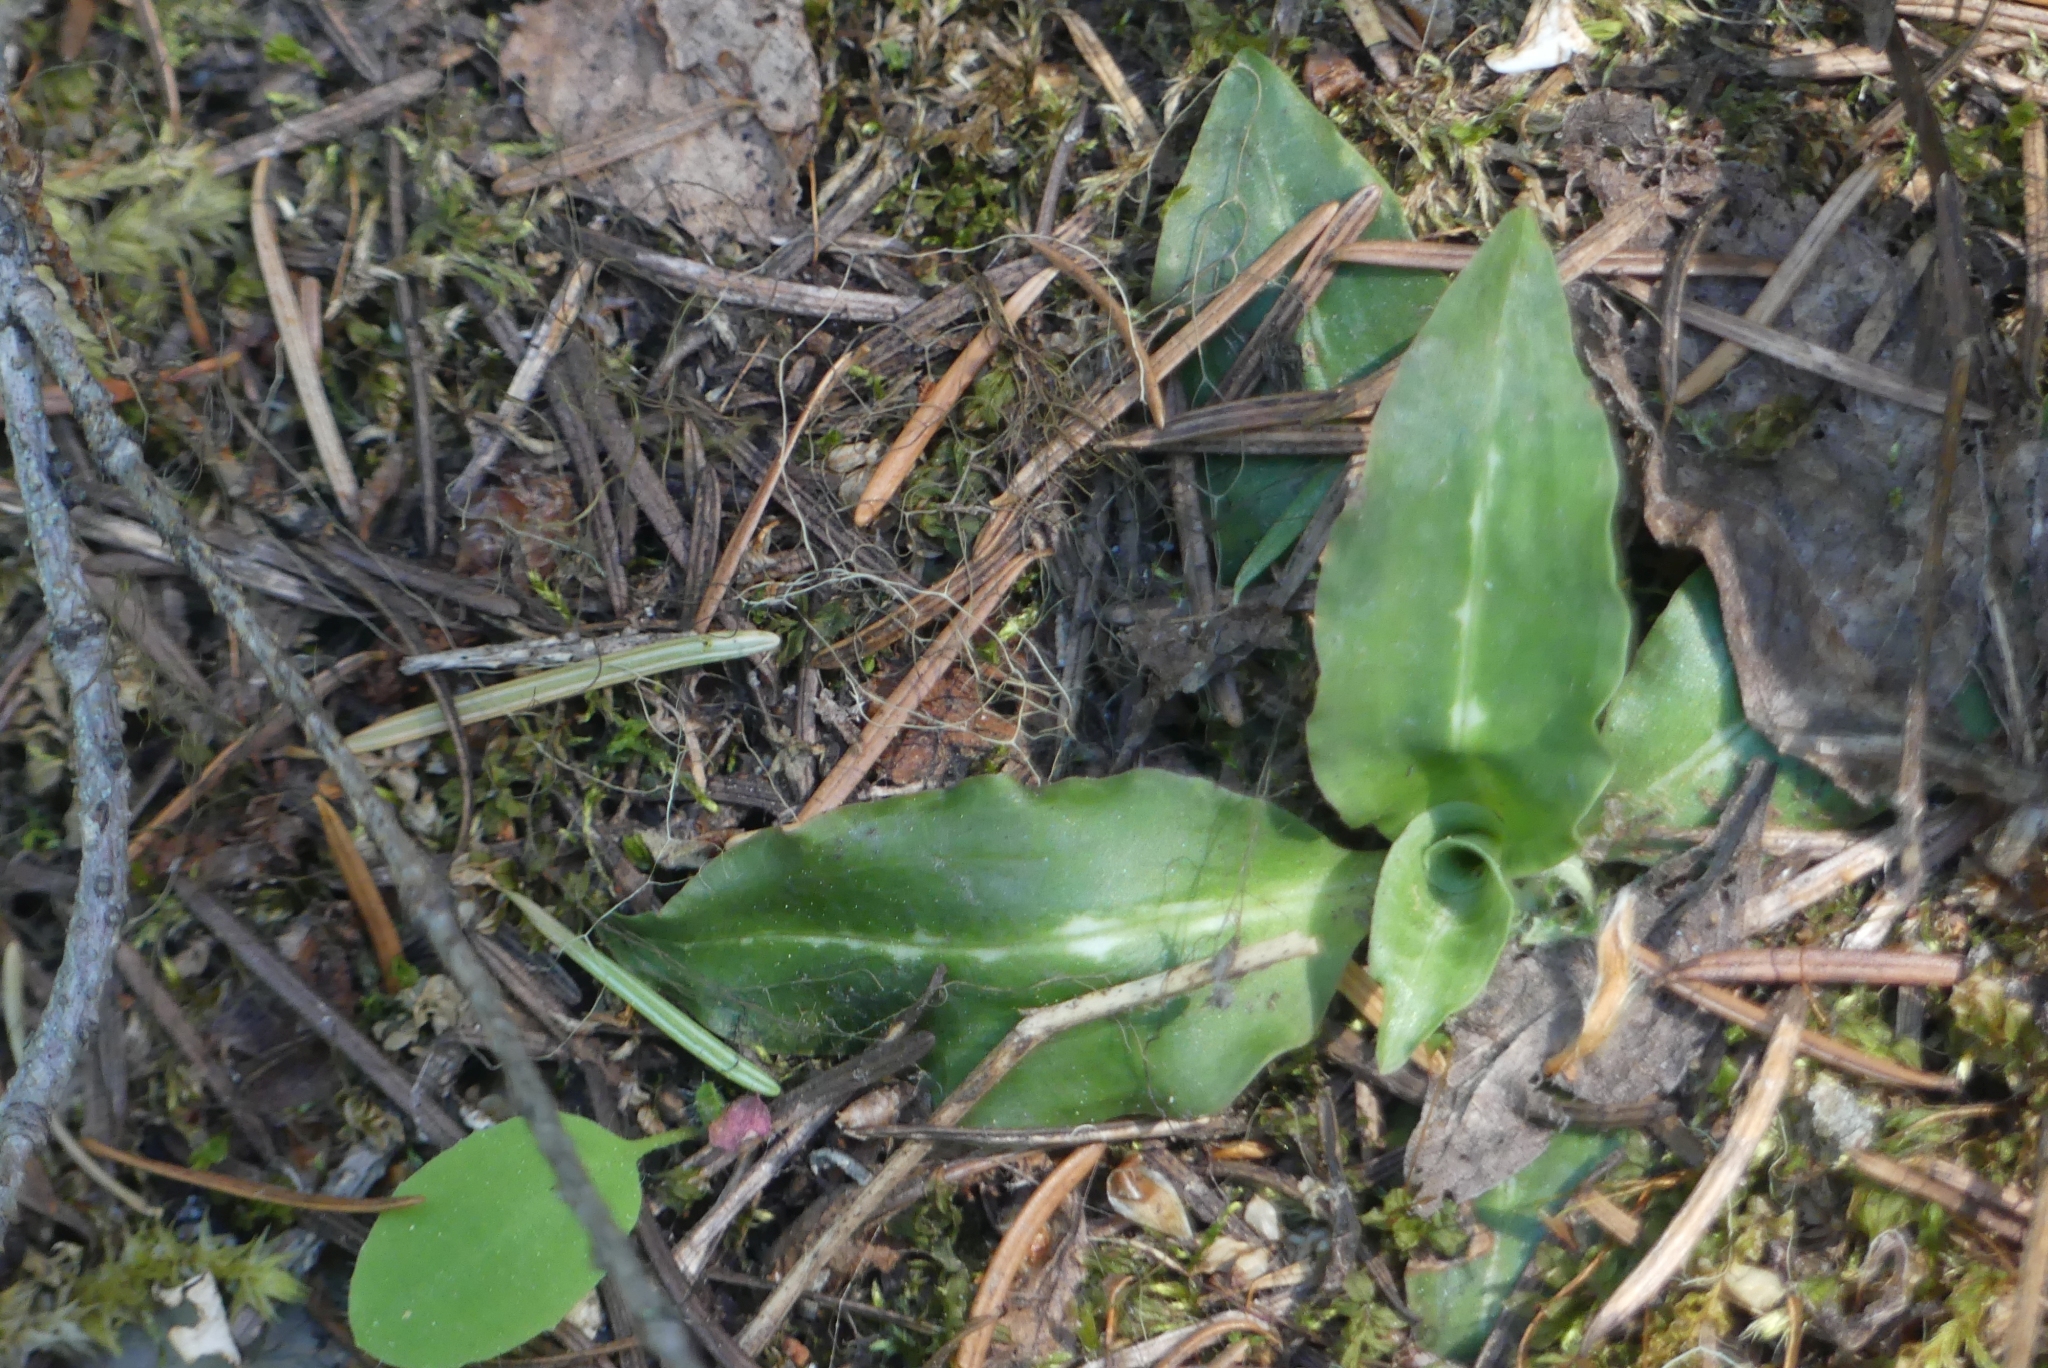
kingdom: Plantae
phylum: Tracheophyta
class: Liliopsida
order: Asparagales
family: Orchidaceae
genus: Goodyera
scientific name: Goodyera oblongifolia
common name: Giant rattlesnake-plantain
